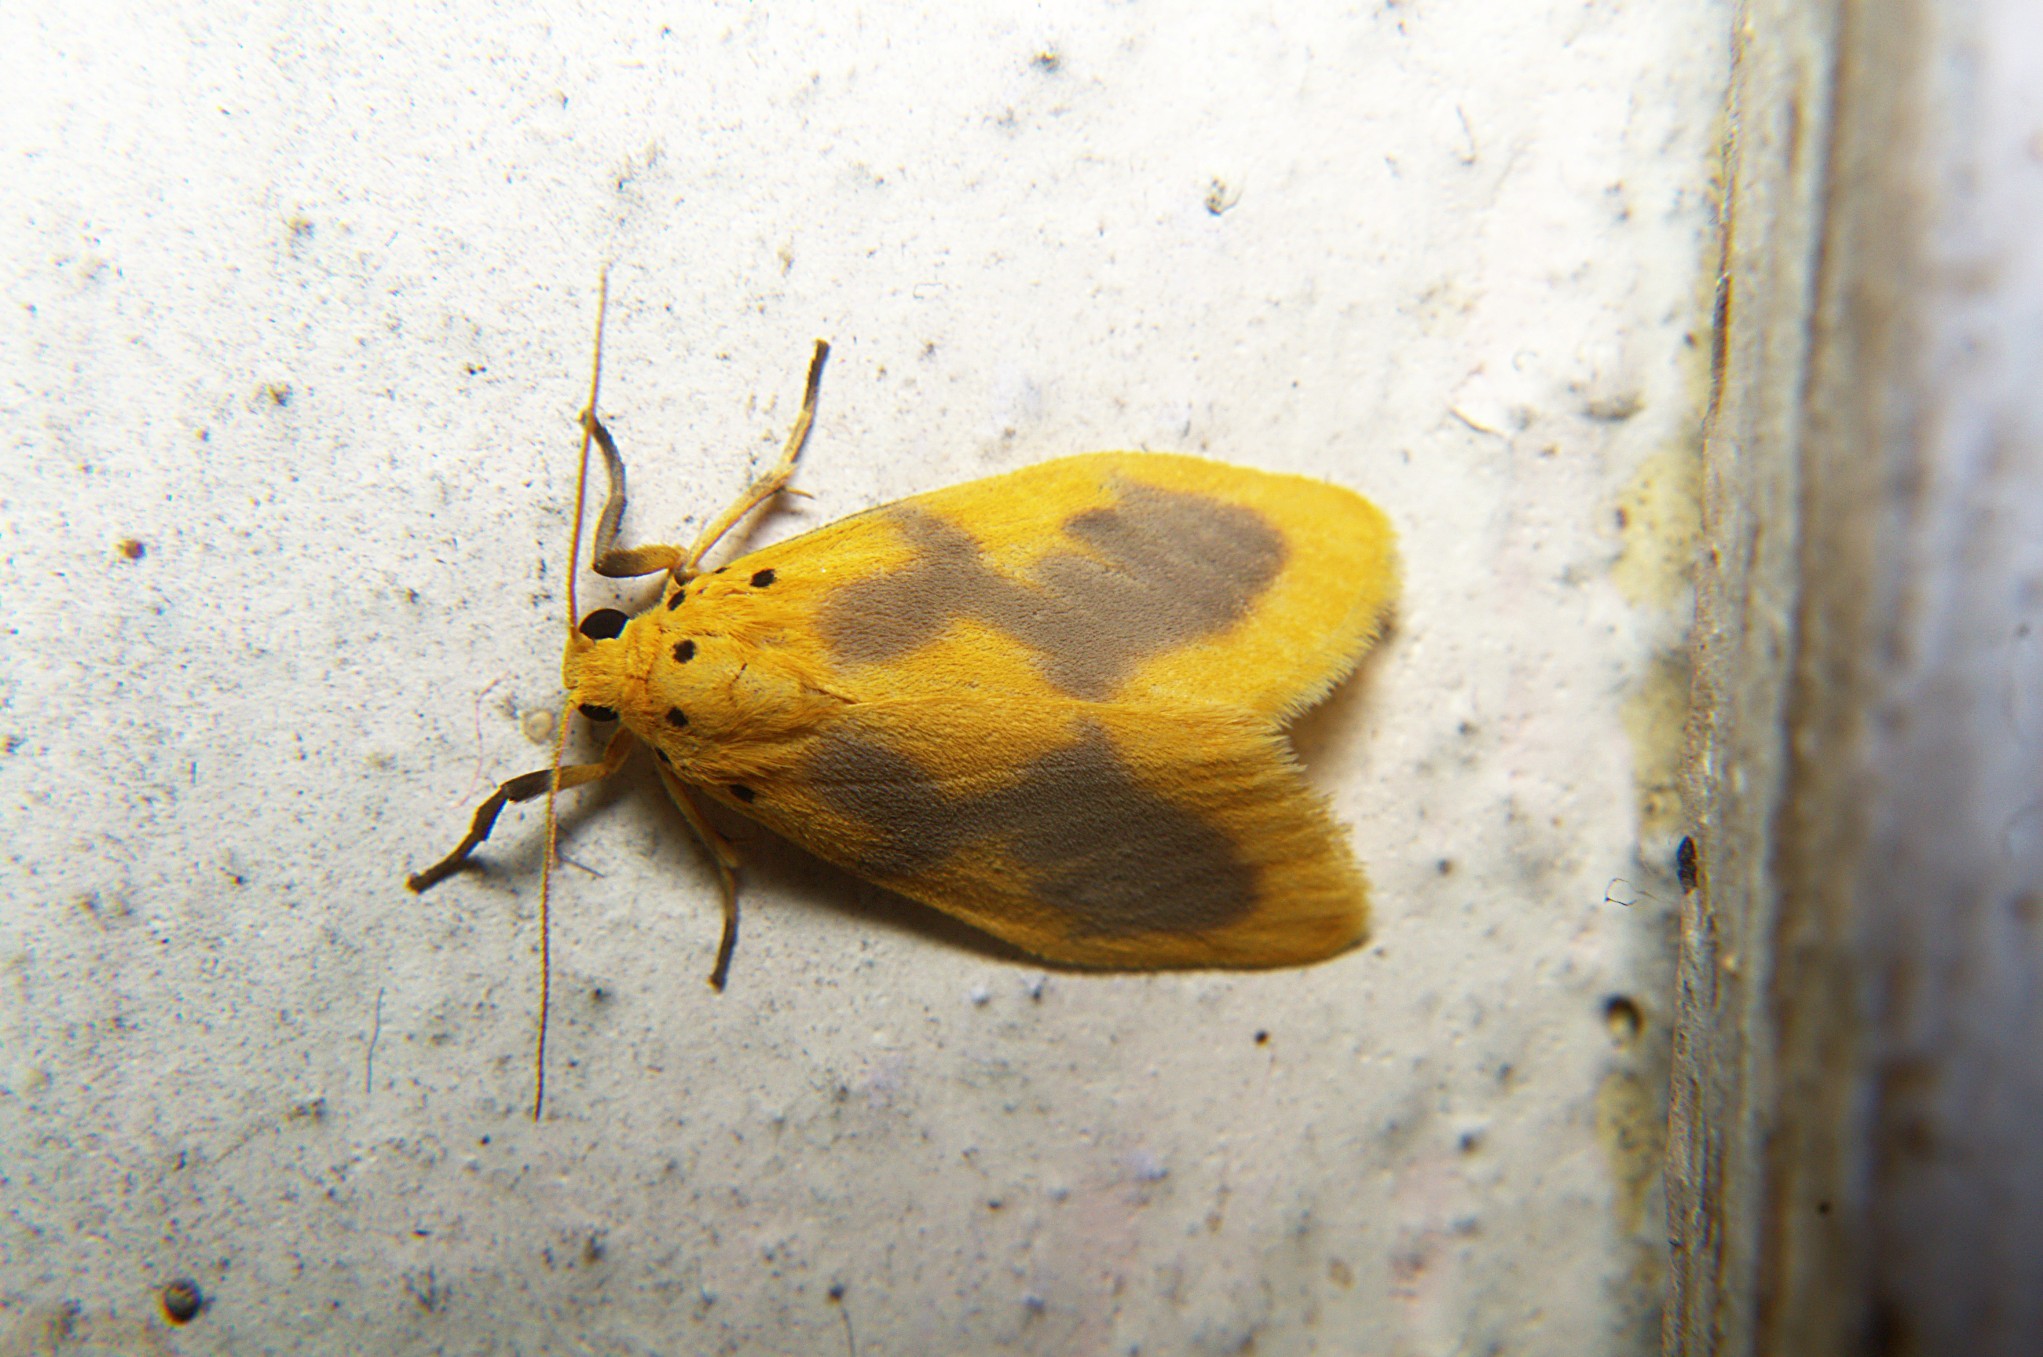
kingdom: Animalia
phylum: Arthropoda
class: Insecta
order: Lepidoptera
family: Erebidae
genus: Miltochrista
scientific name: Miltochrista undulata
